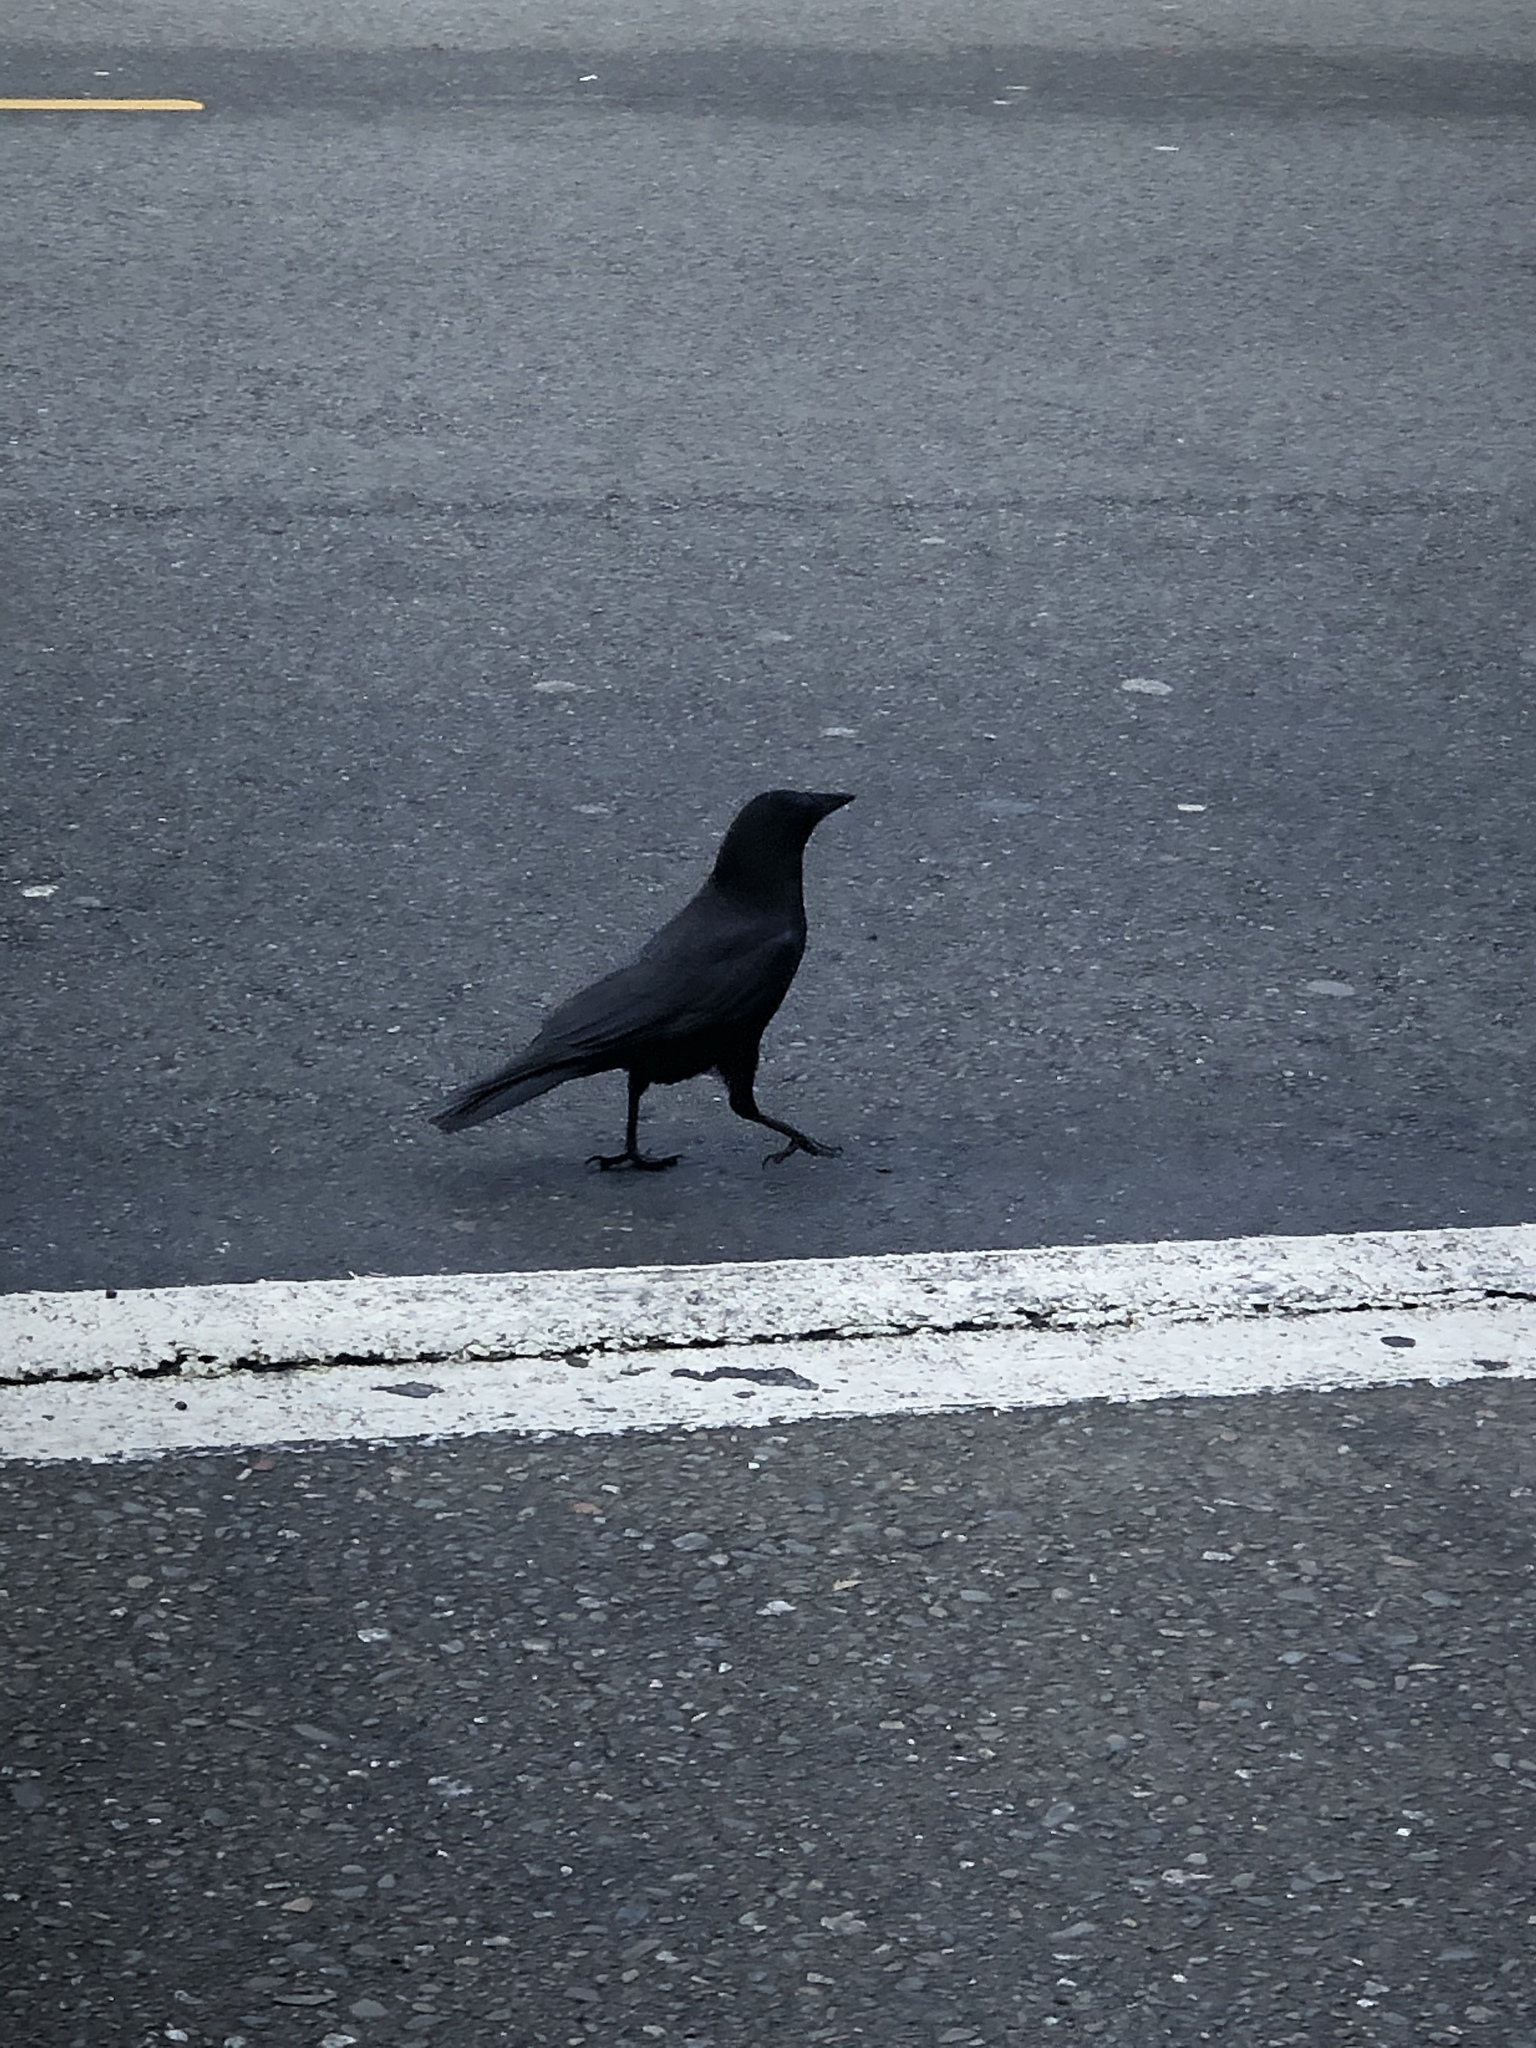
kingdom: Animalia
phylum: Chordata
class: Aves
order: Passeriformes
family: Corvidae
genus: Corvus
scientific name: Corvus brachyrhynchos
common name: American crow
